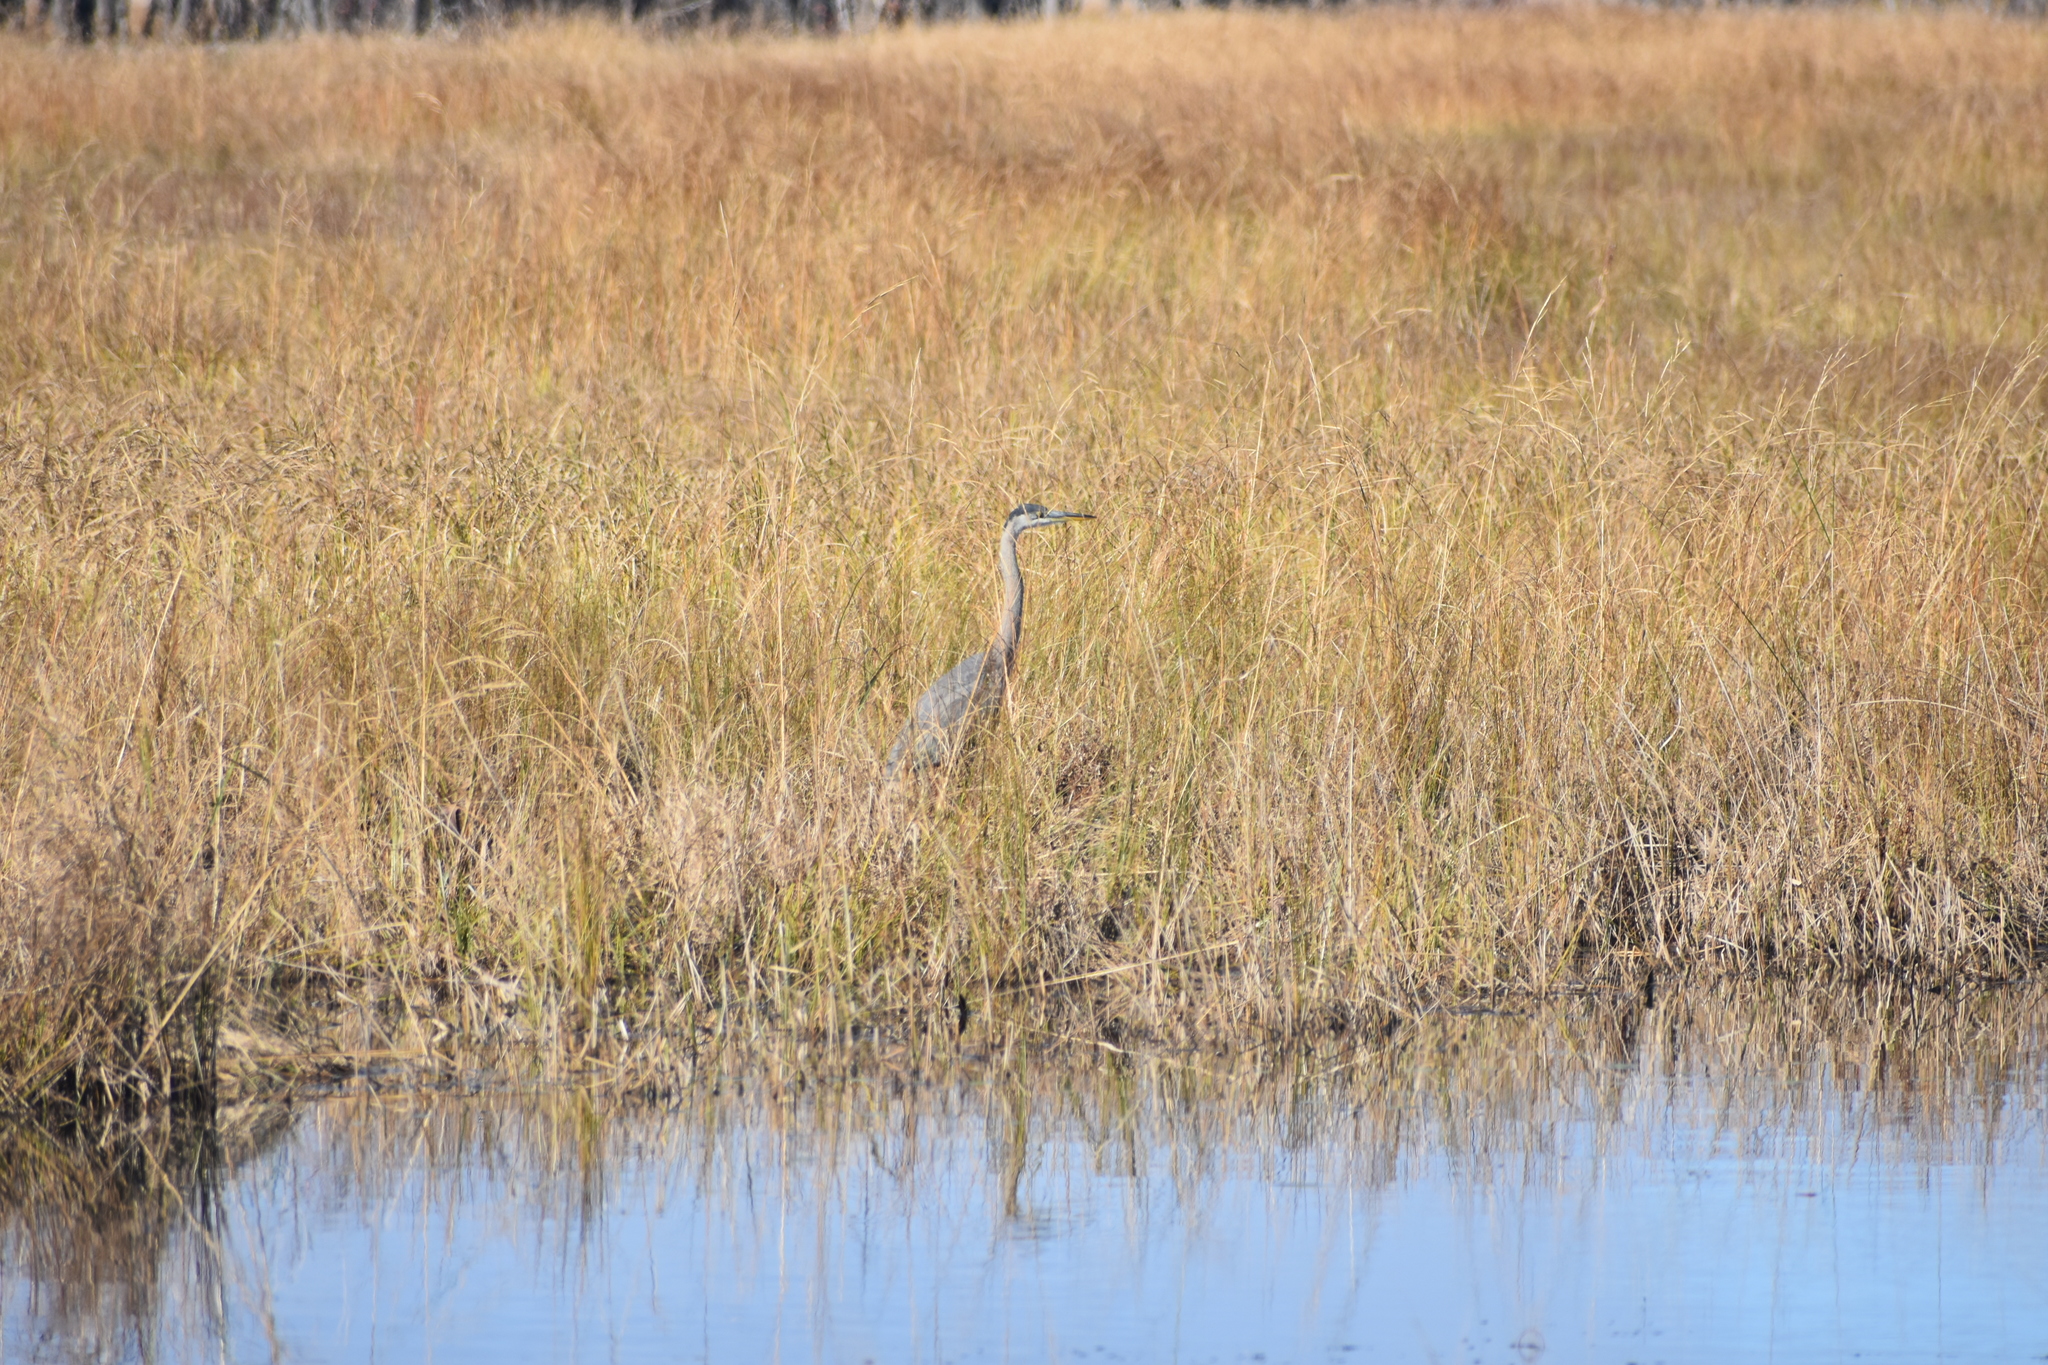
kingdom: Animalia
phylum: Chordata
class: Aves
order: Pelecaniformes
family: Ardeidae
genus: Ardea
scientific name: Ardea herodias
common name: Great blue heron
